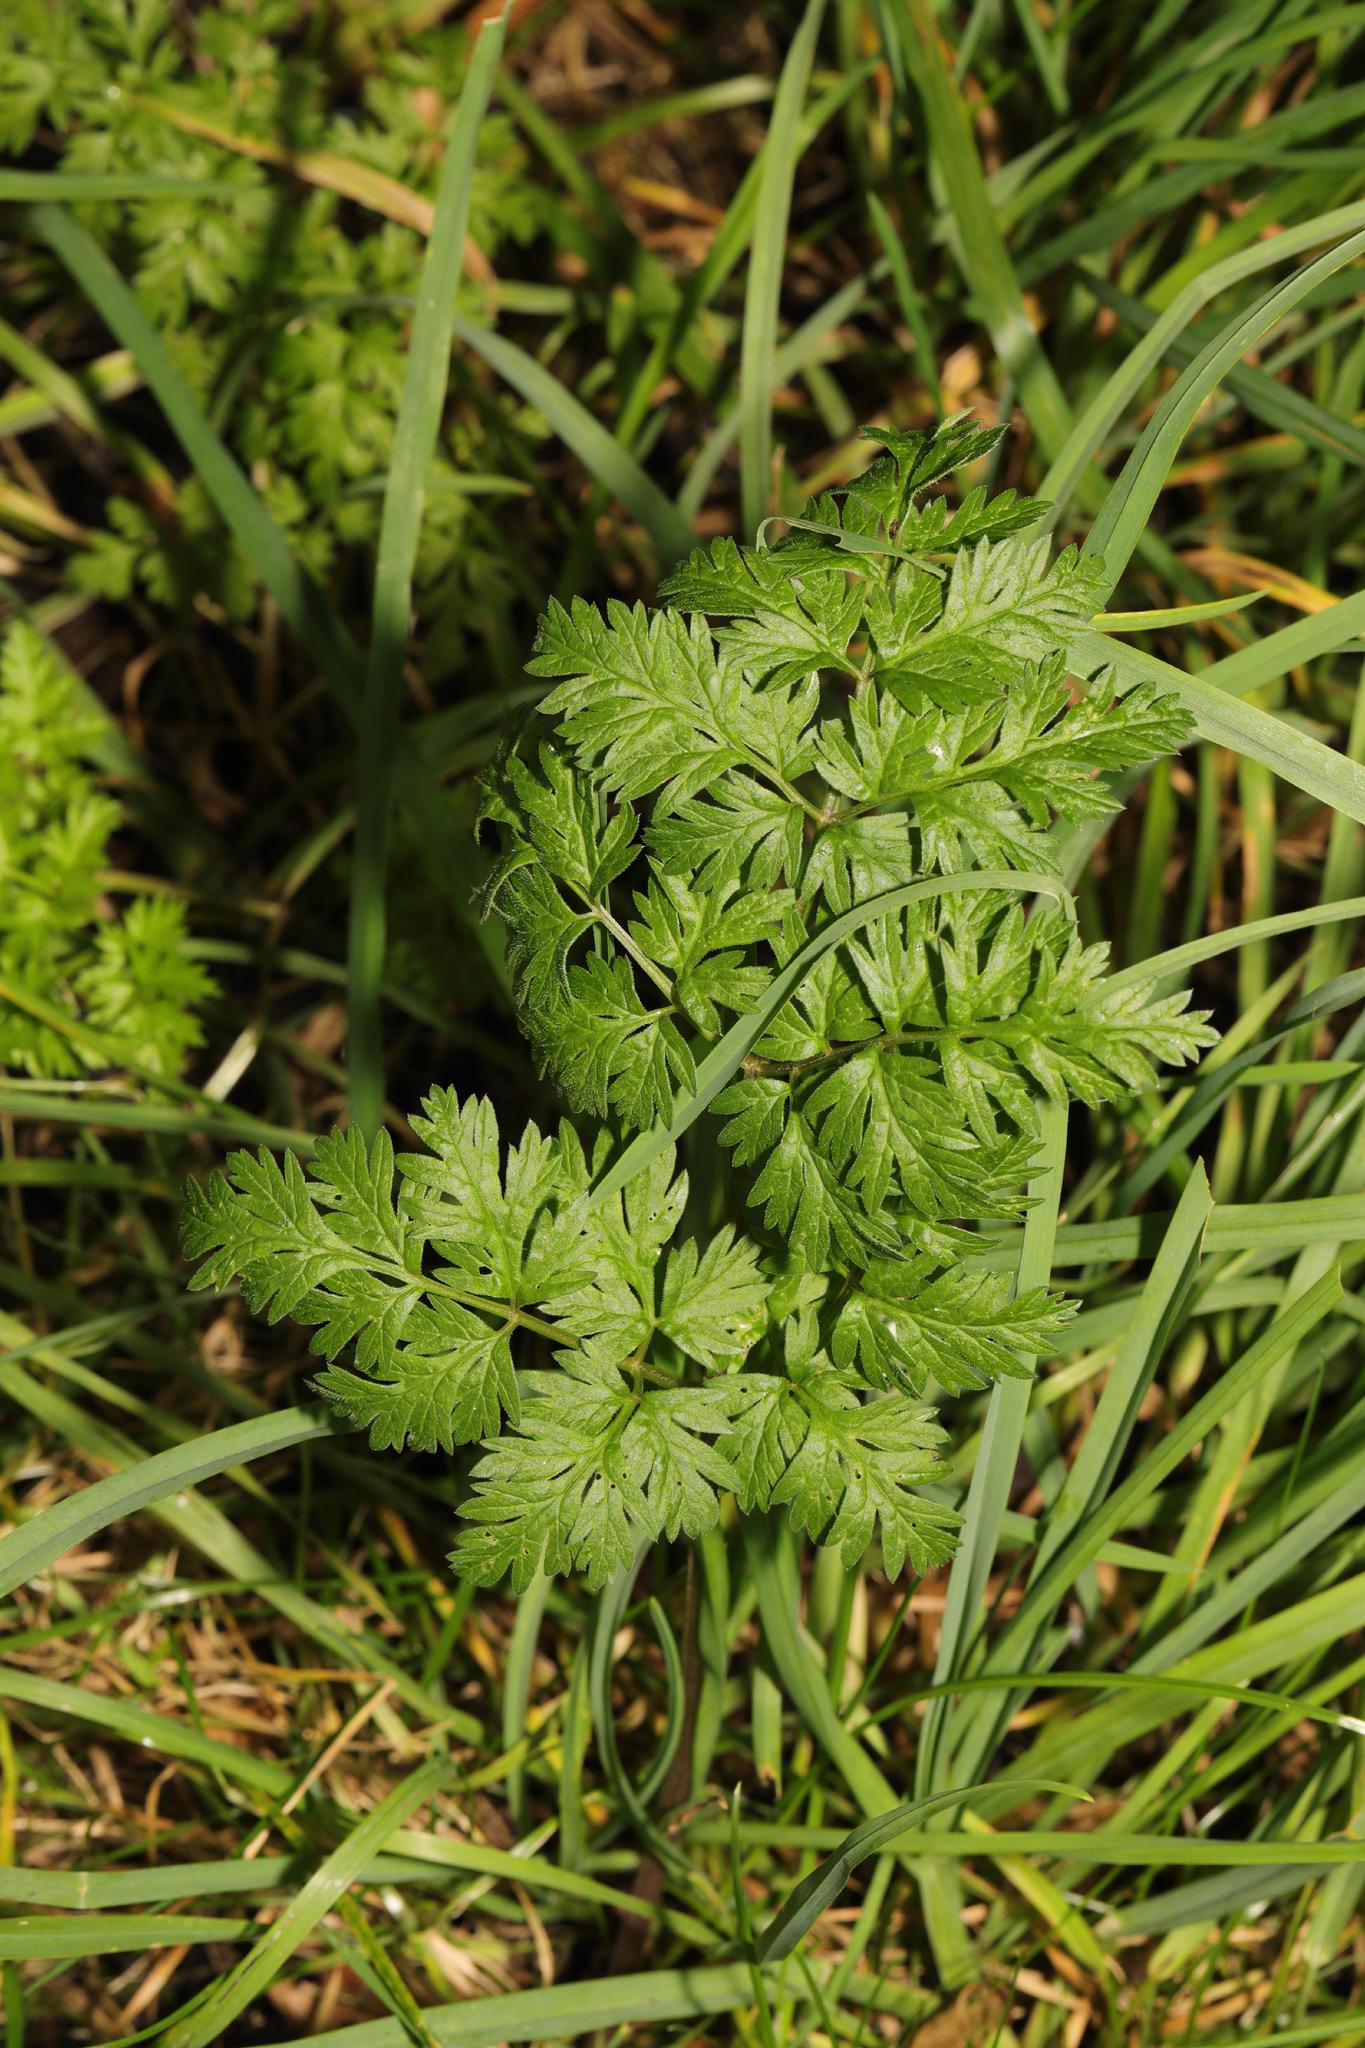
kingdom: Plantae
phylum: Tracheophyta
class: Magnoliopsida
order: Apiales
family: Apiaceae
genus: Anthriscus
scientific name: Anthriscus sylvestris
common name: Cow parsley
